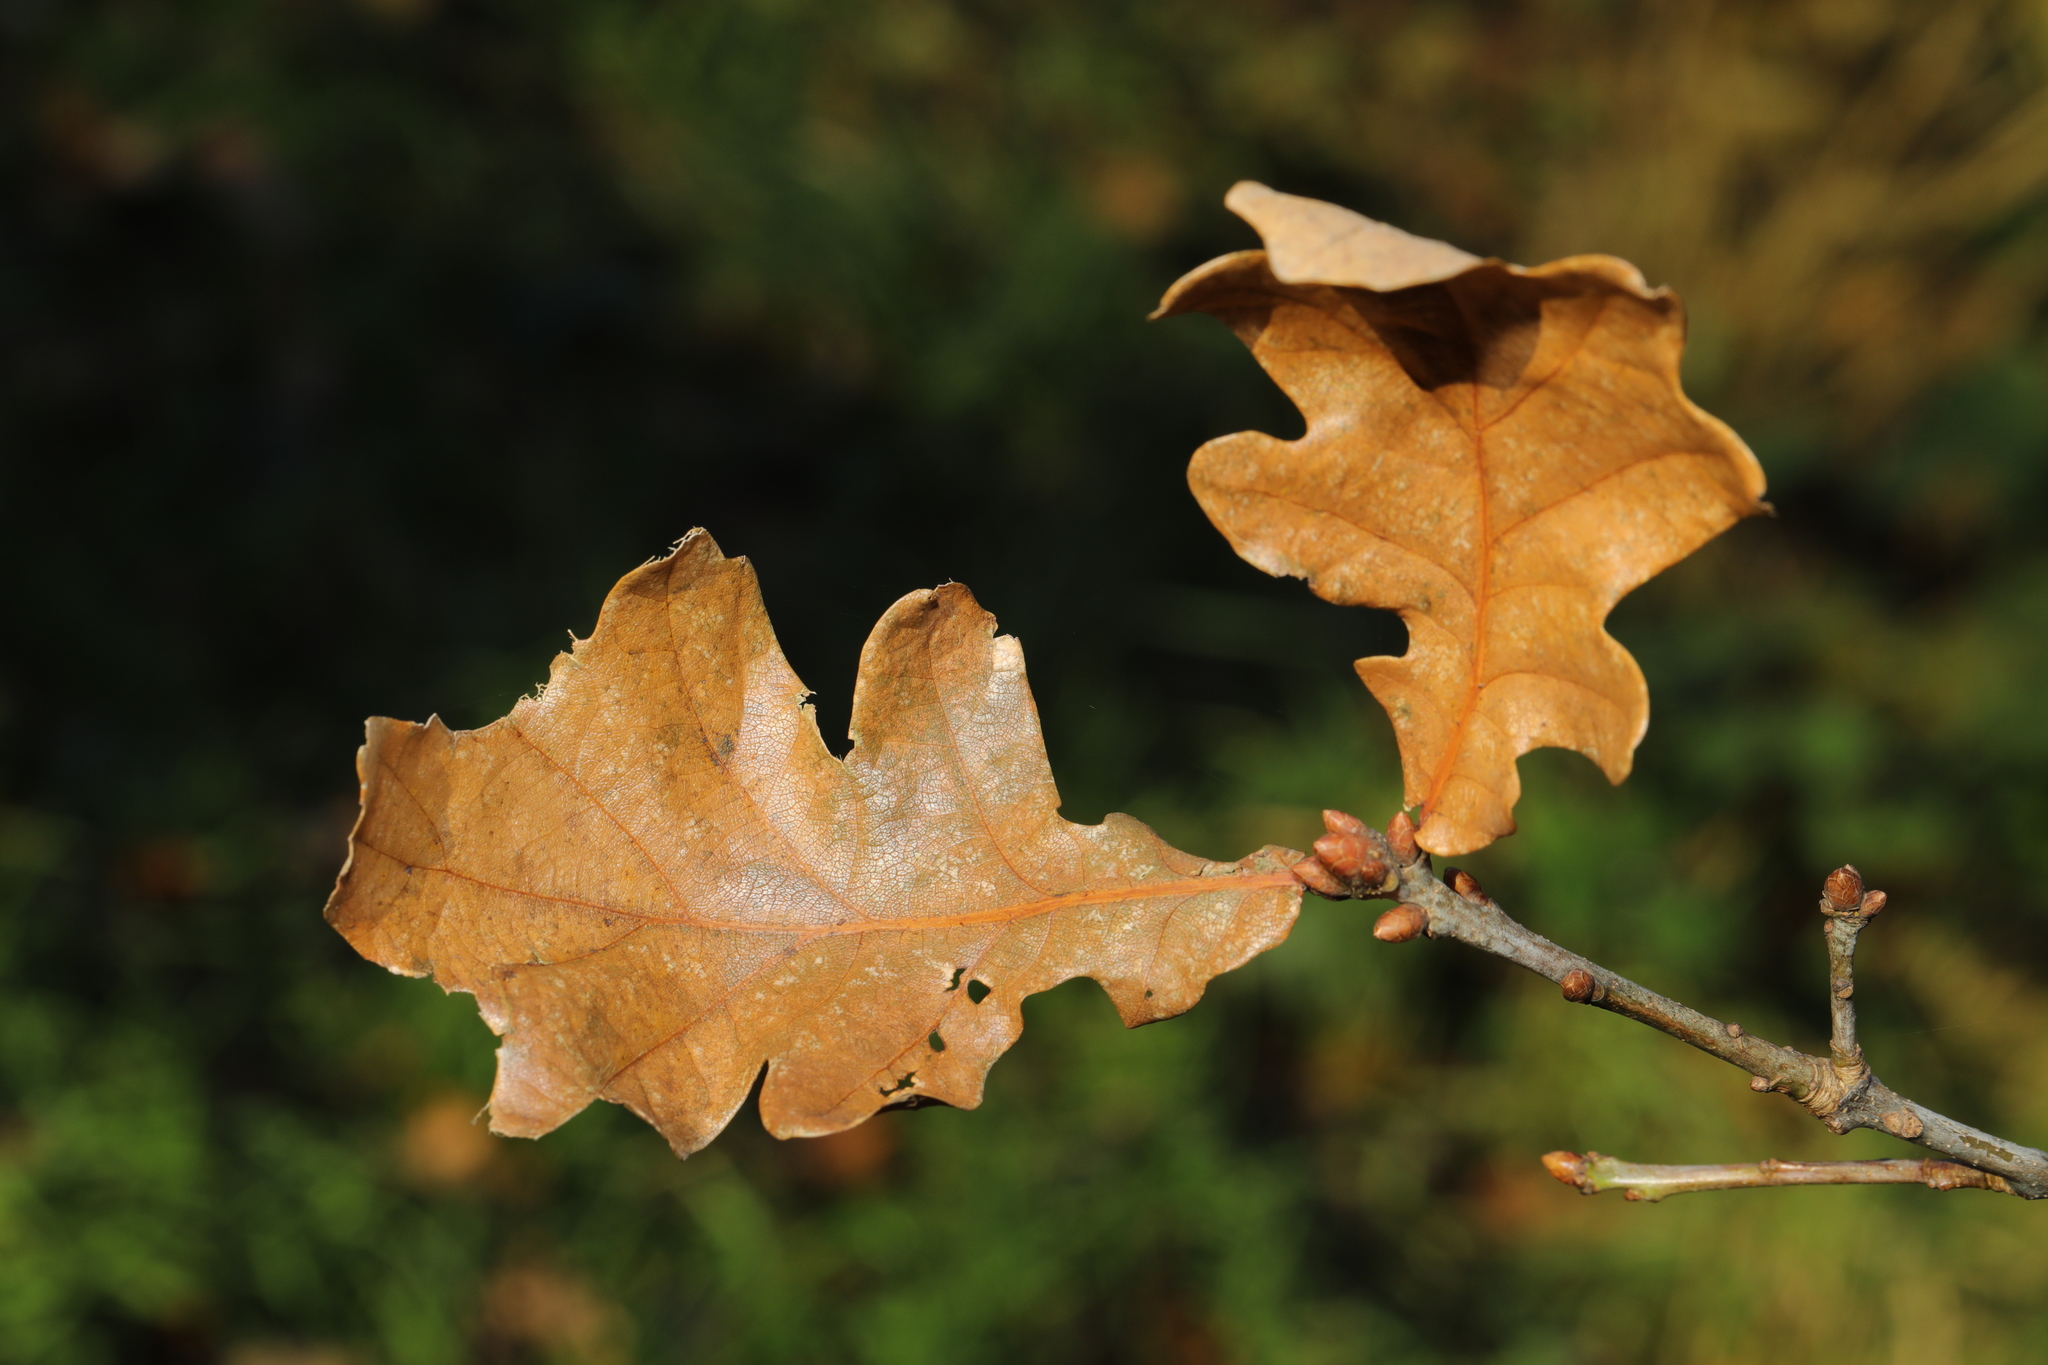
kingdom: Plantae
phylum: Tracheophyta
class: Magnoliopsida
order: Fagales
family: Fagaceae
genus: Quercus
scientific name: Quercus robur
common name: Pedunculate oak
